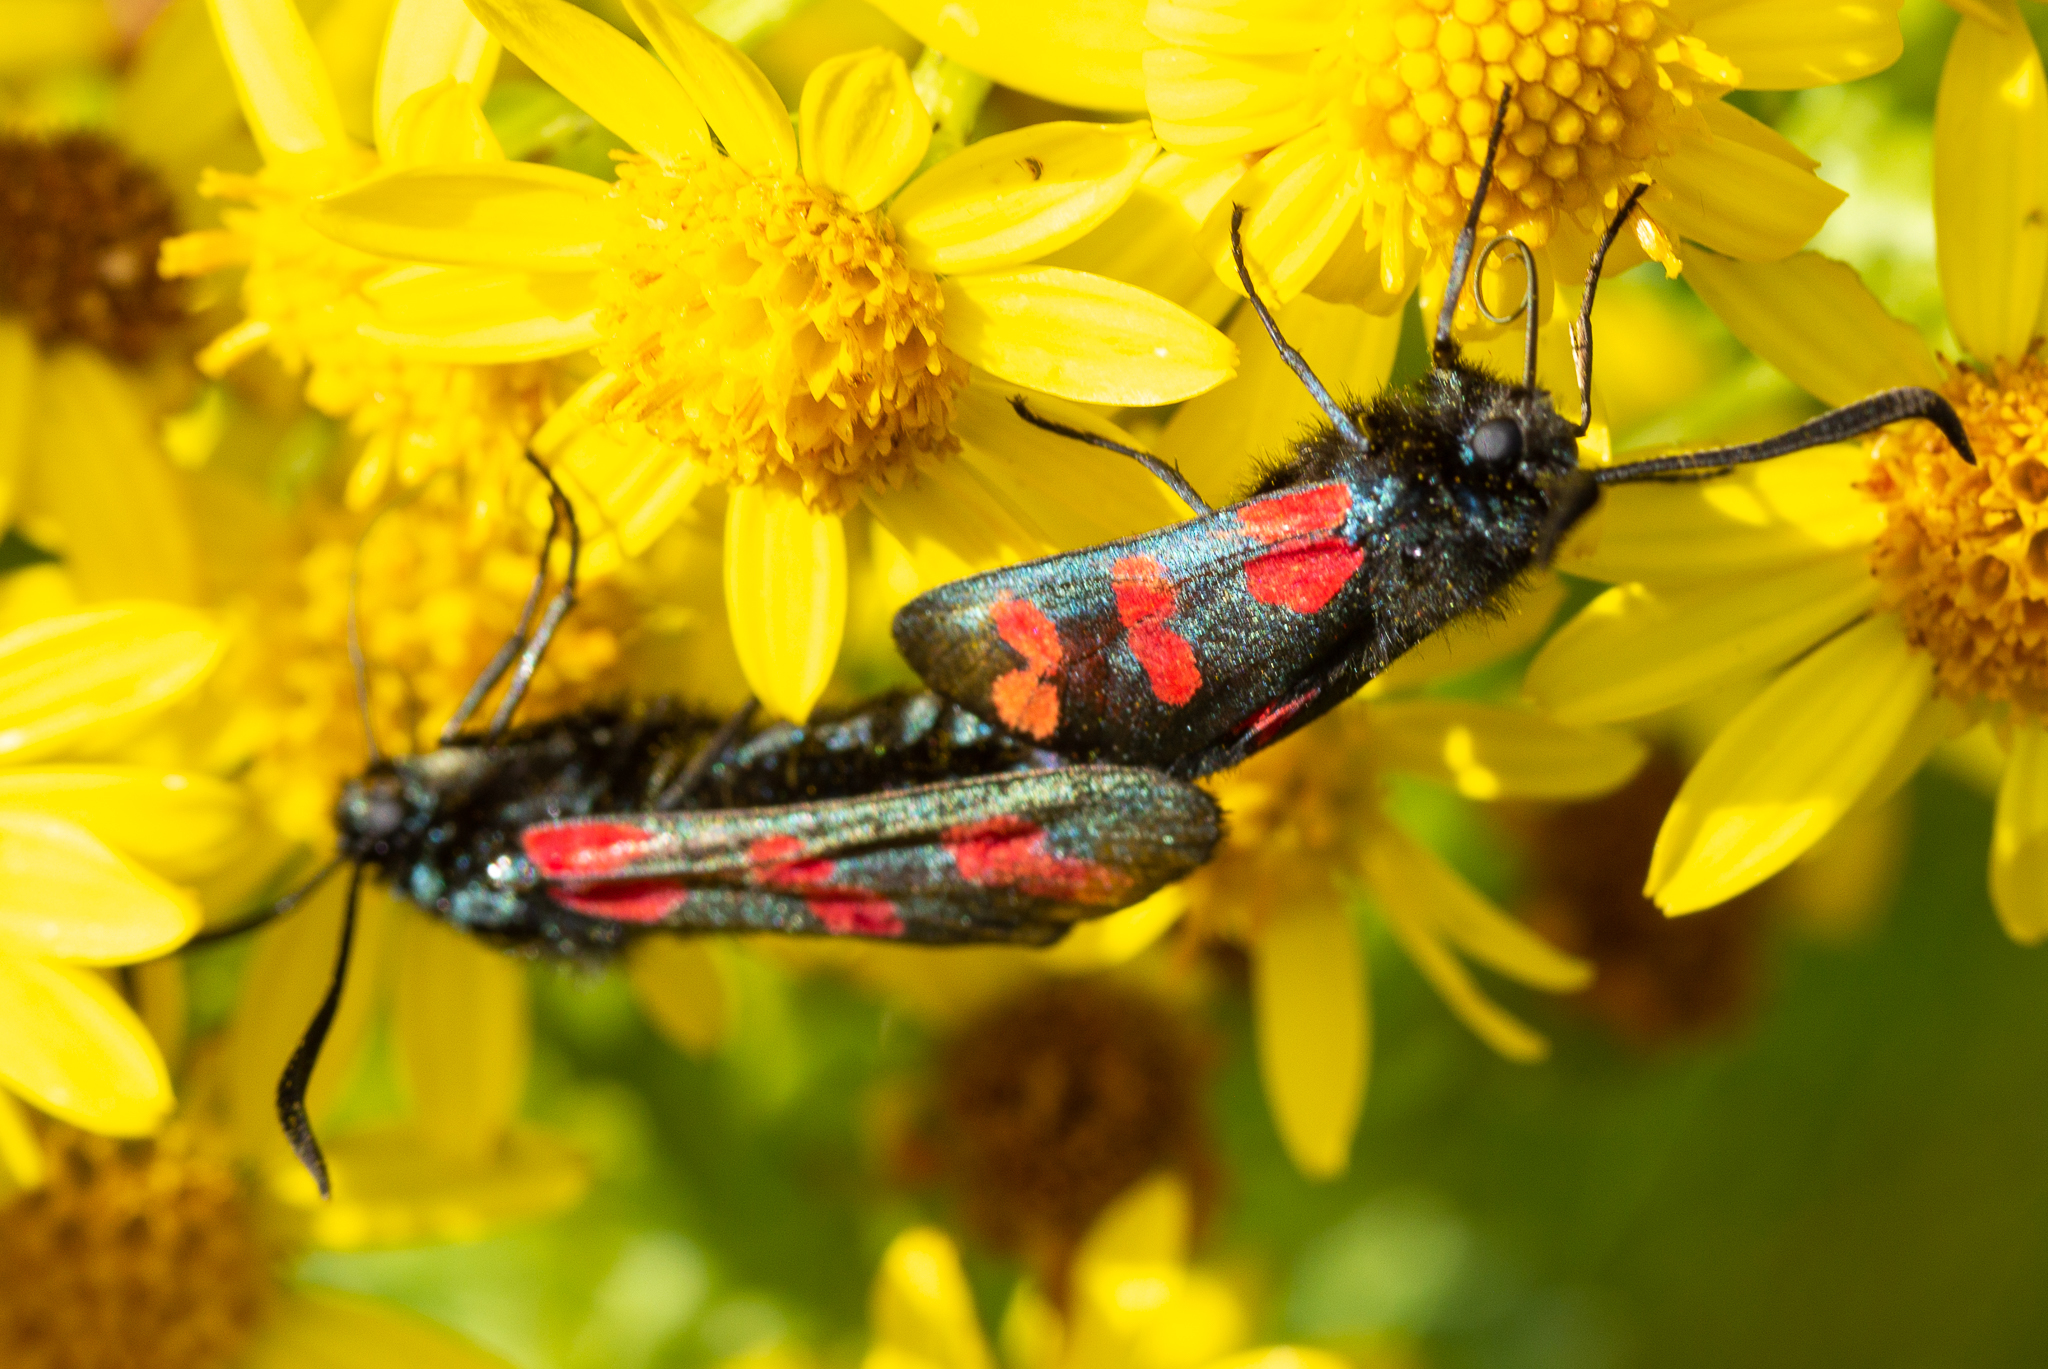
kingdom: Animalia
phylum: Arthropoda
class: Insecta
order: Lepidoptera
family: Zygaenidae
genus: Zygaena
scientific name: Zygaena filipendulae
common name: Six-spot burnet
